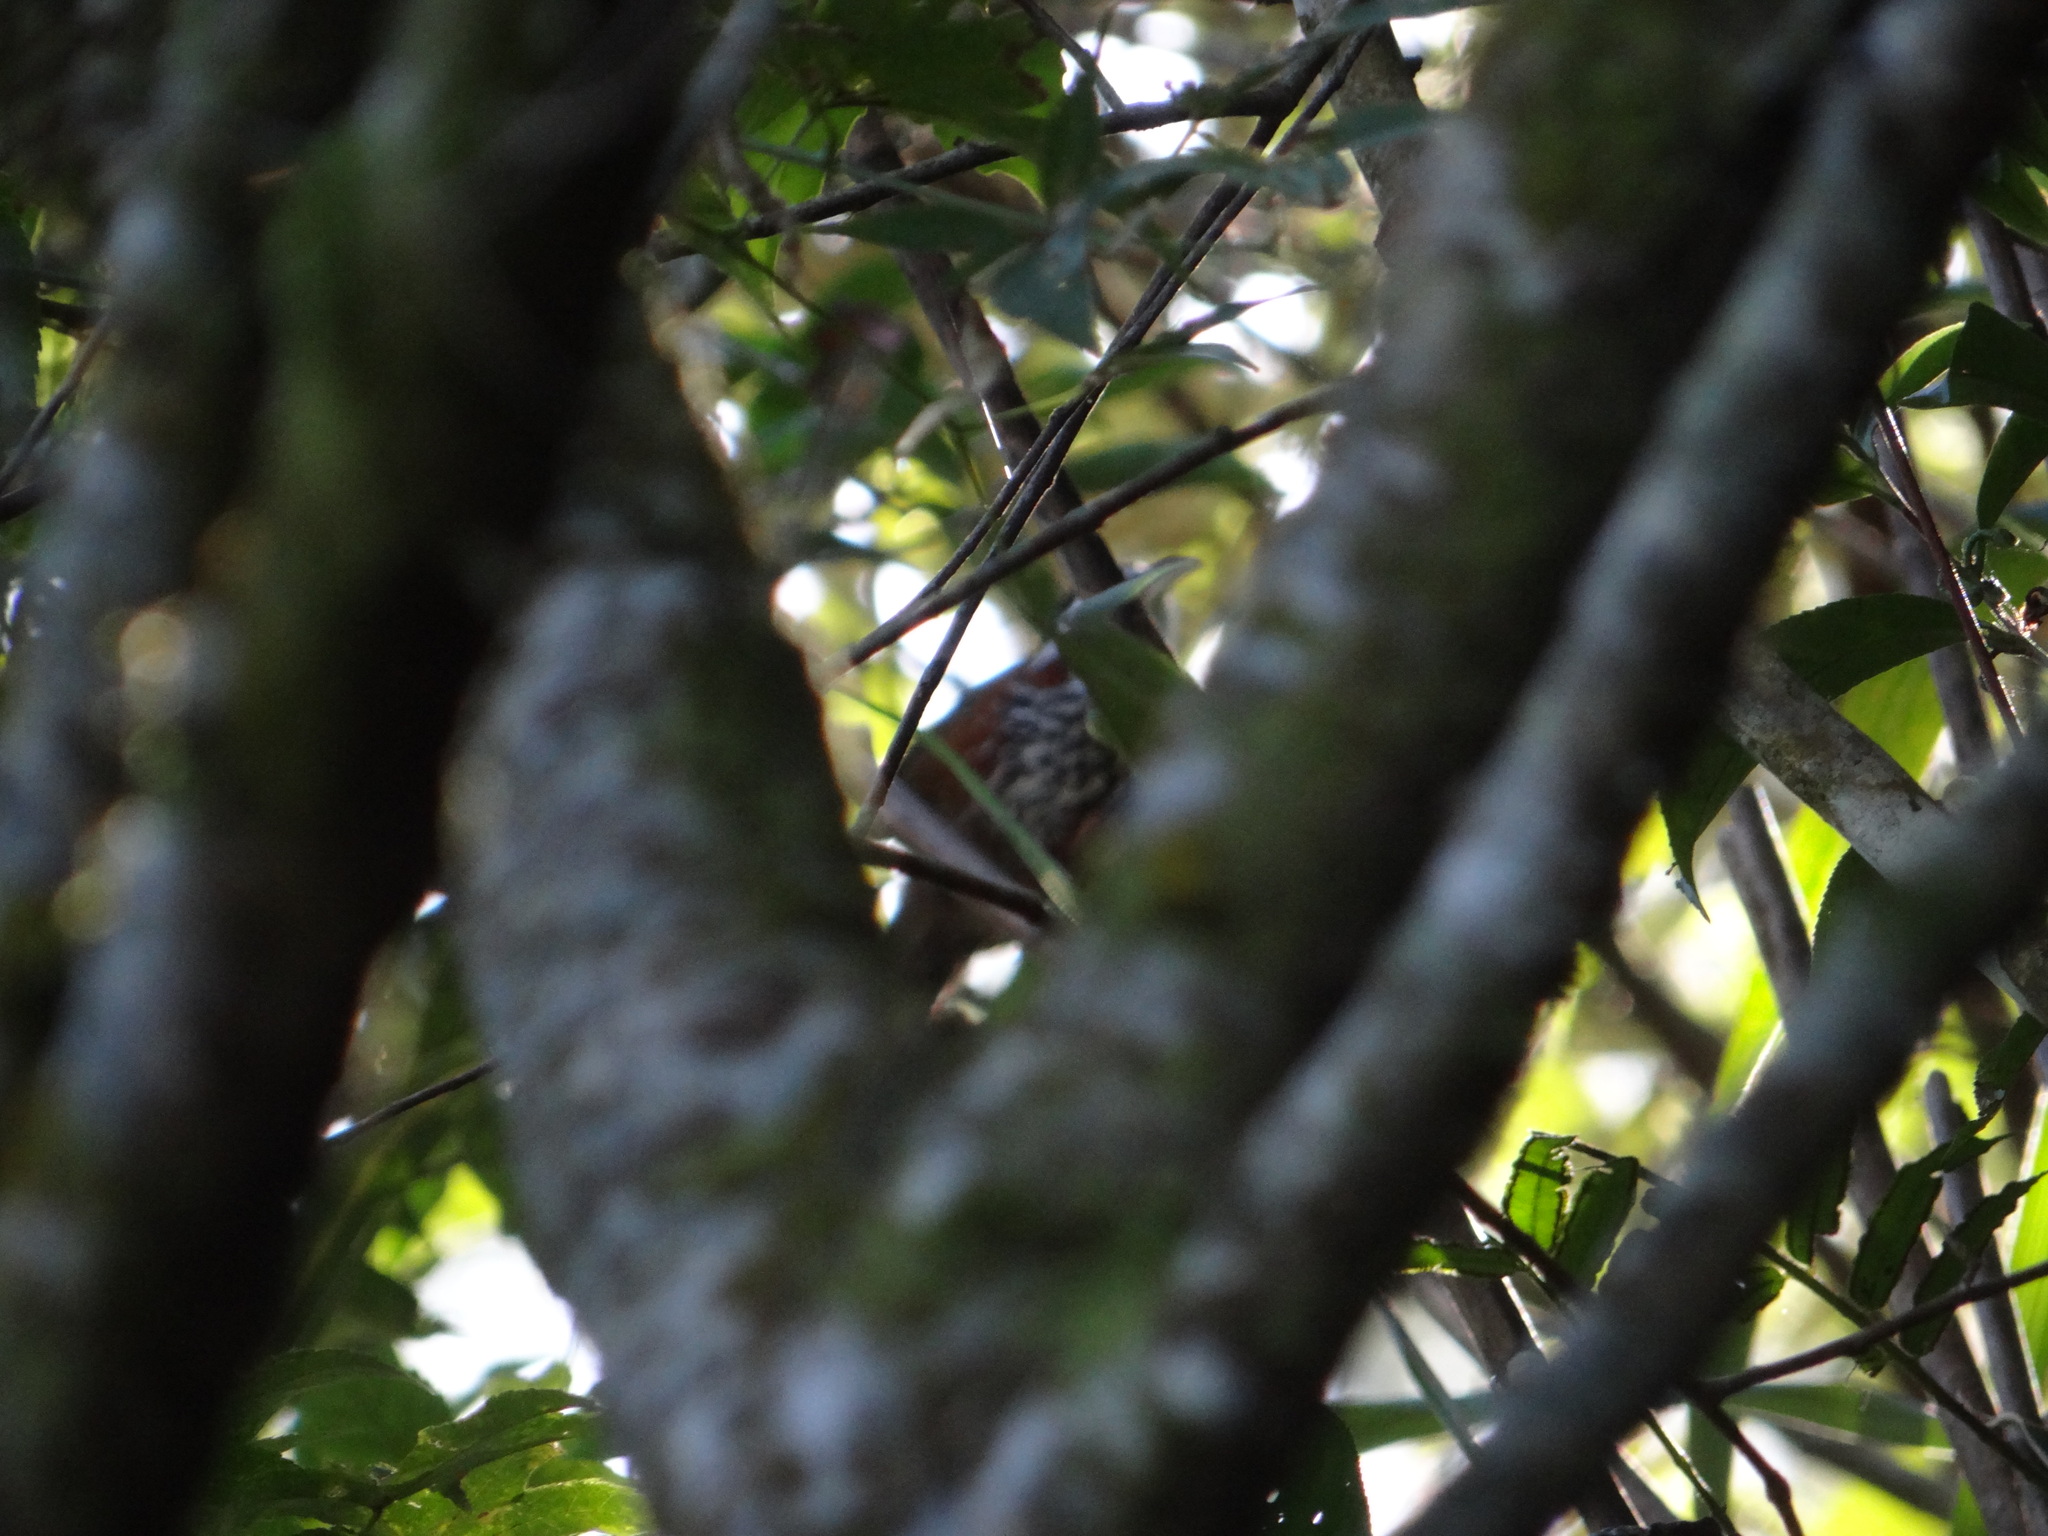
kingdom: Animalia
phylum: Chordata
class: Aves
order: Passeriformes
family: Timaliidae
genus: Pomatorhinus
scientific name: Pomatorhinus musicus
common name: Taiwan scimitar-babbler
